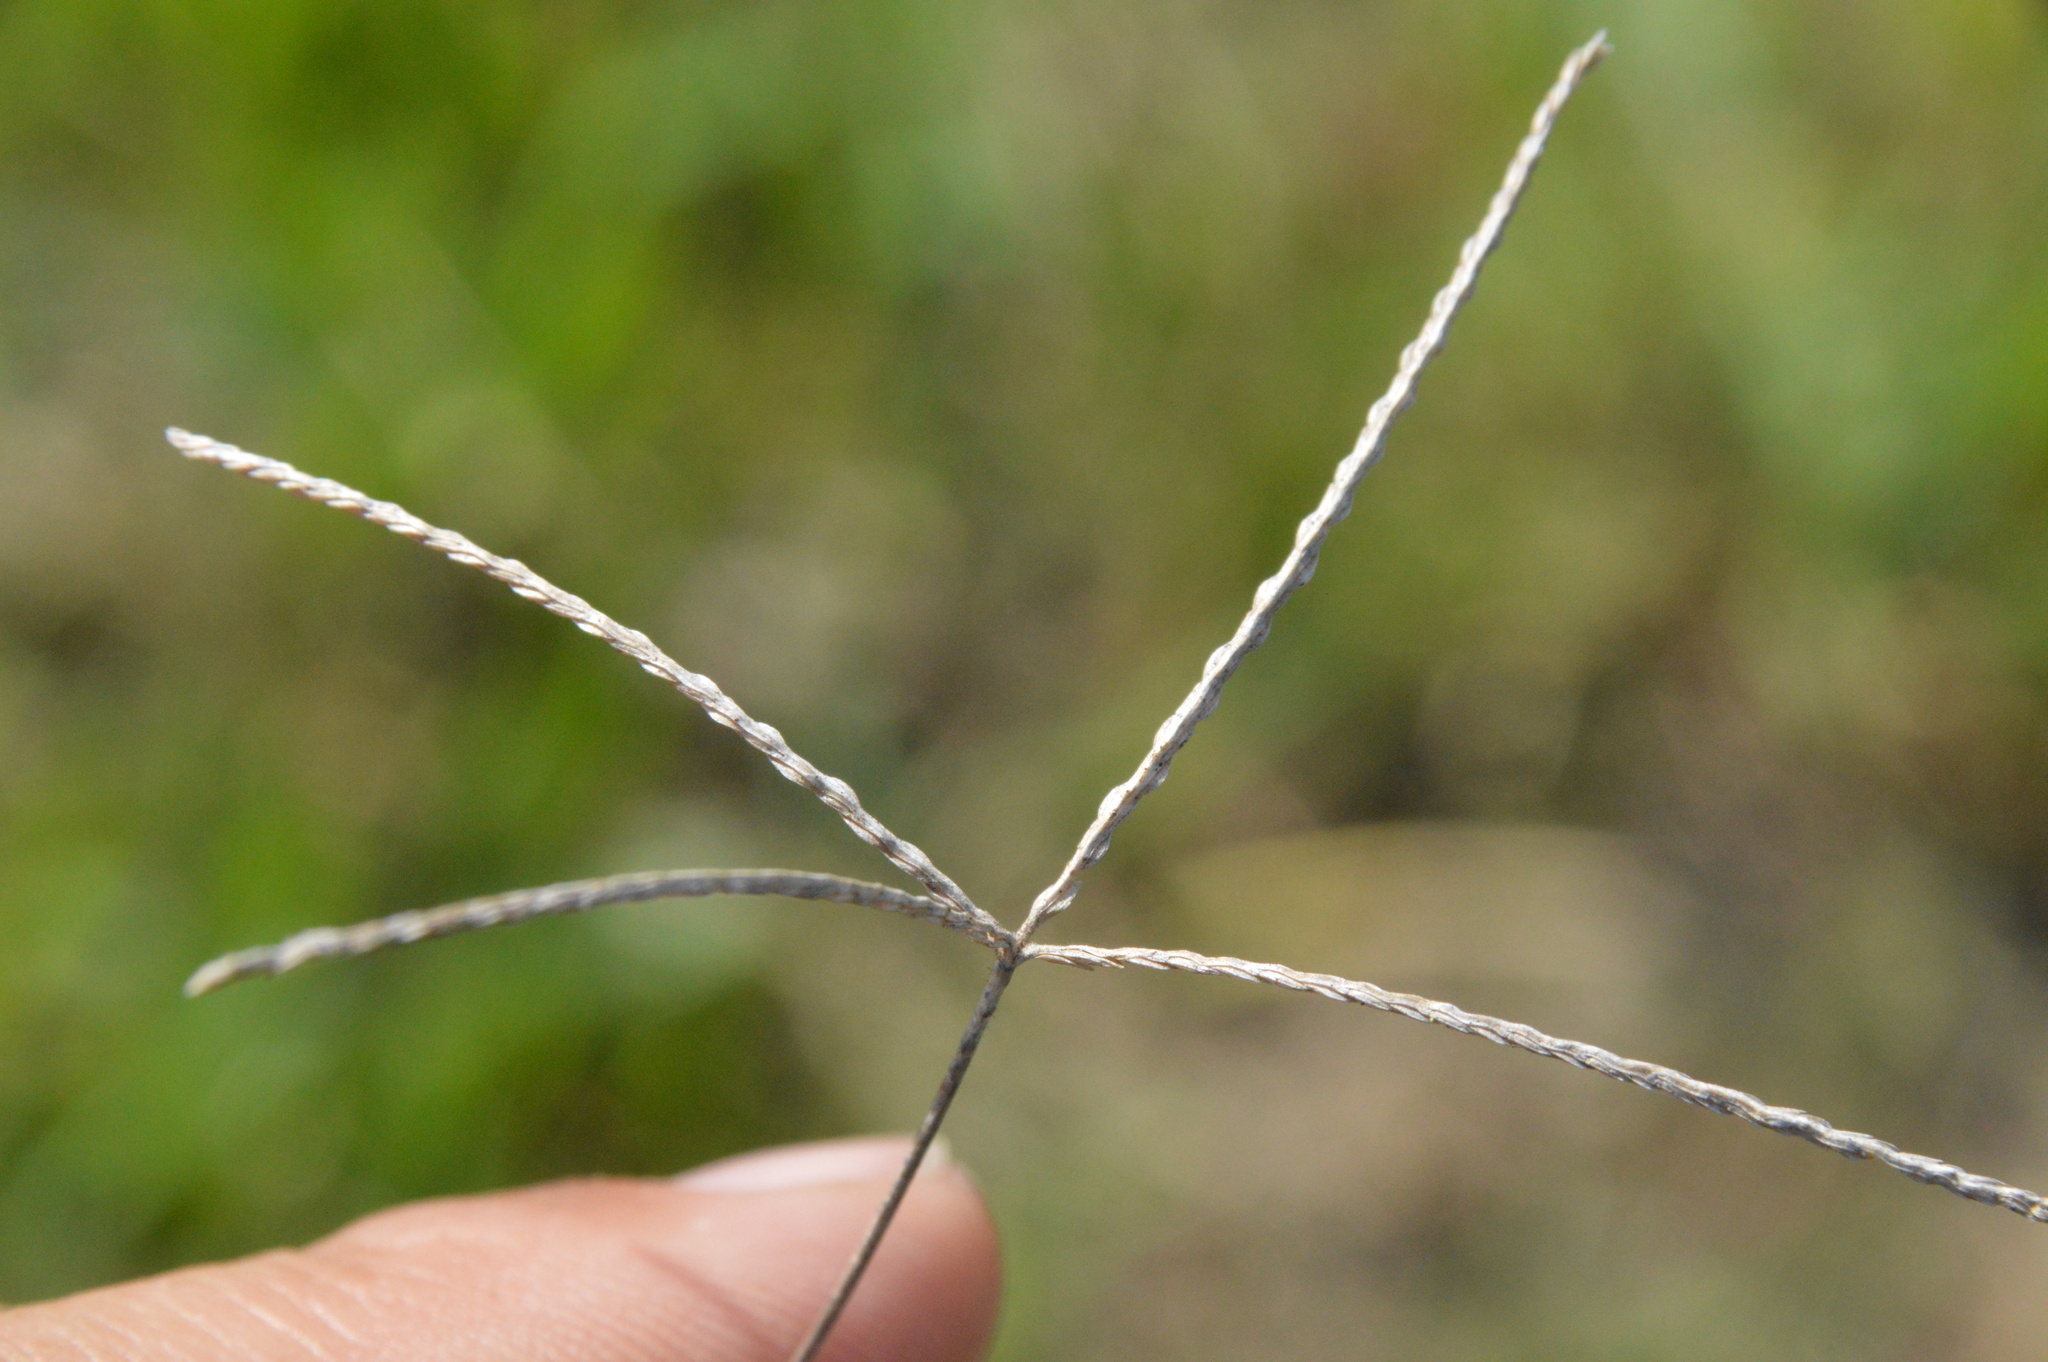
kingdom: Plantae
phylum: Tracheophyta
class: Liliopsida
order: Poales
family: Poaceae
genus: Cynodon
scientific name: Cynodon dactylon
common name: Bermuda grass
